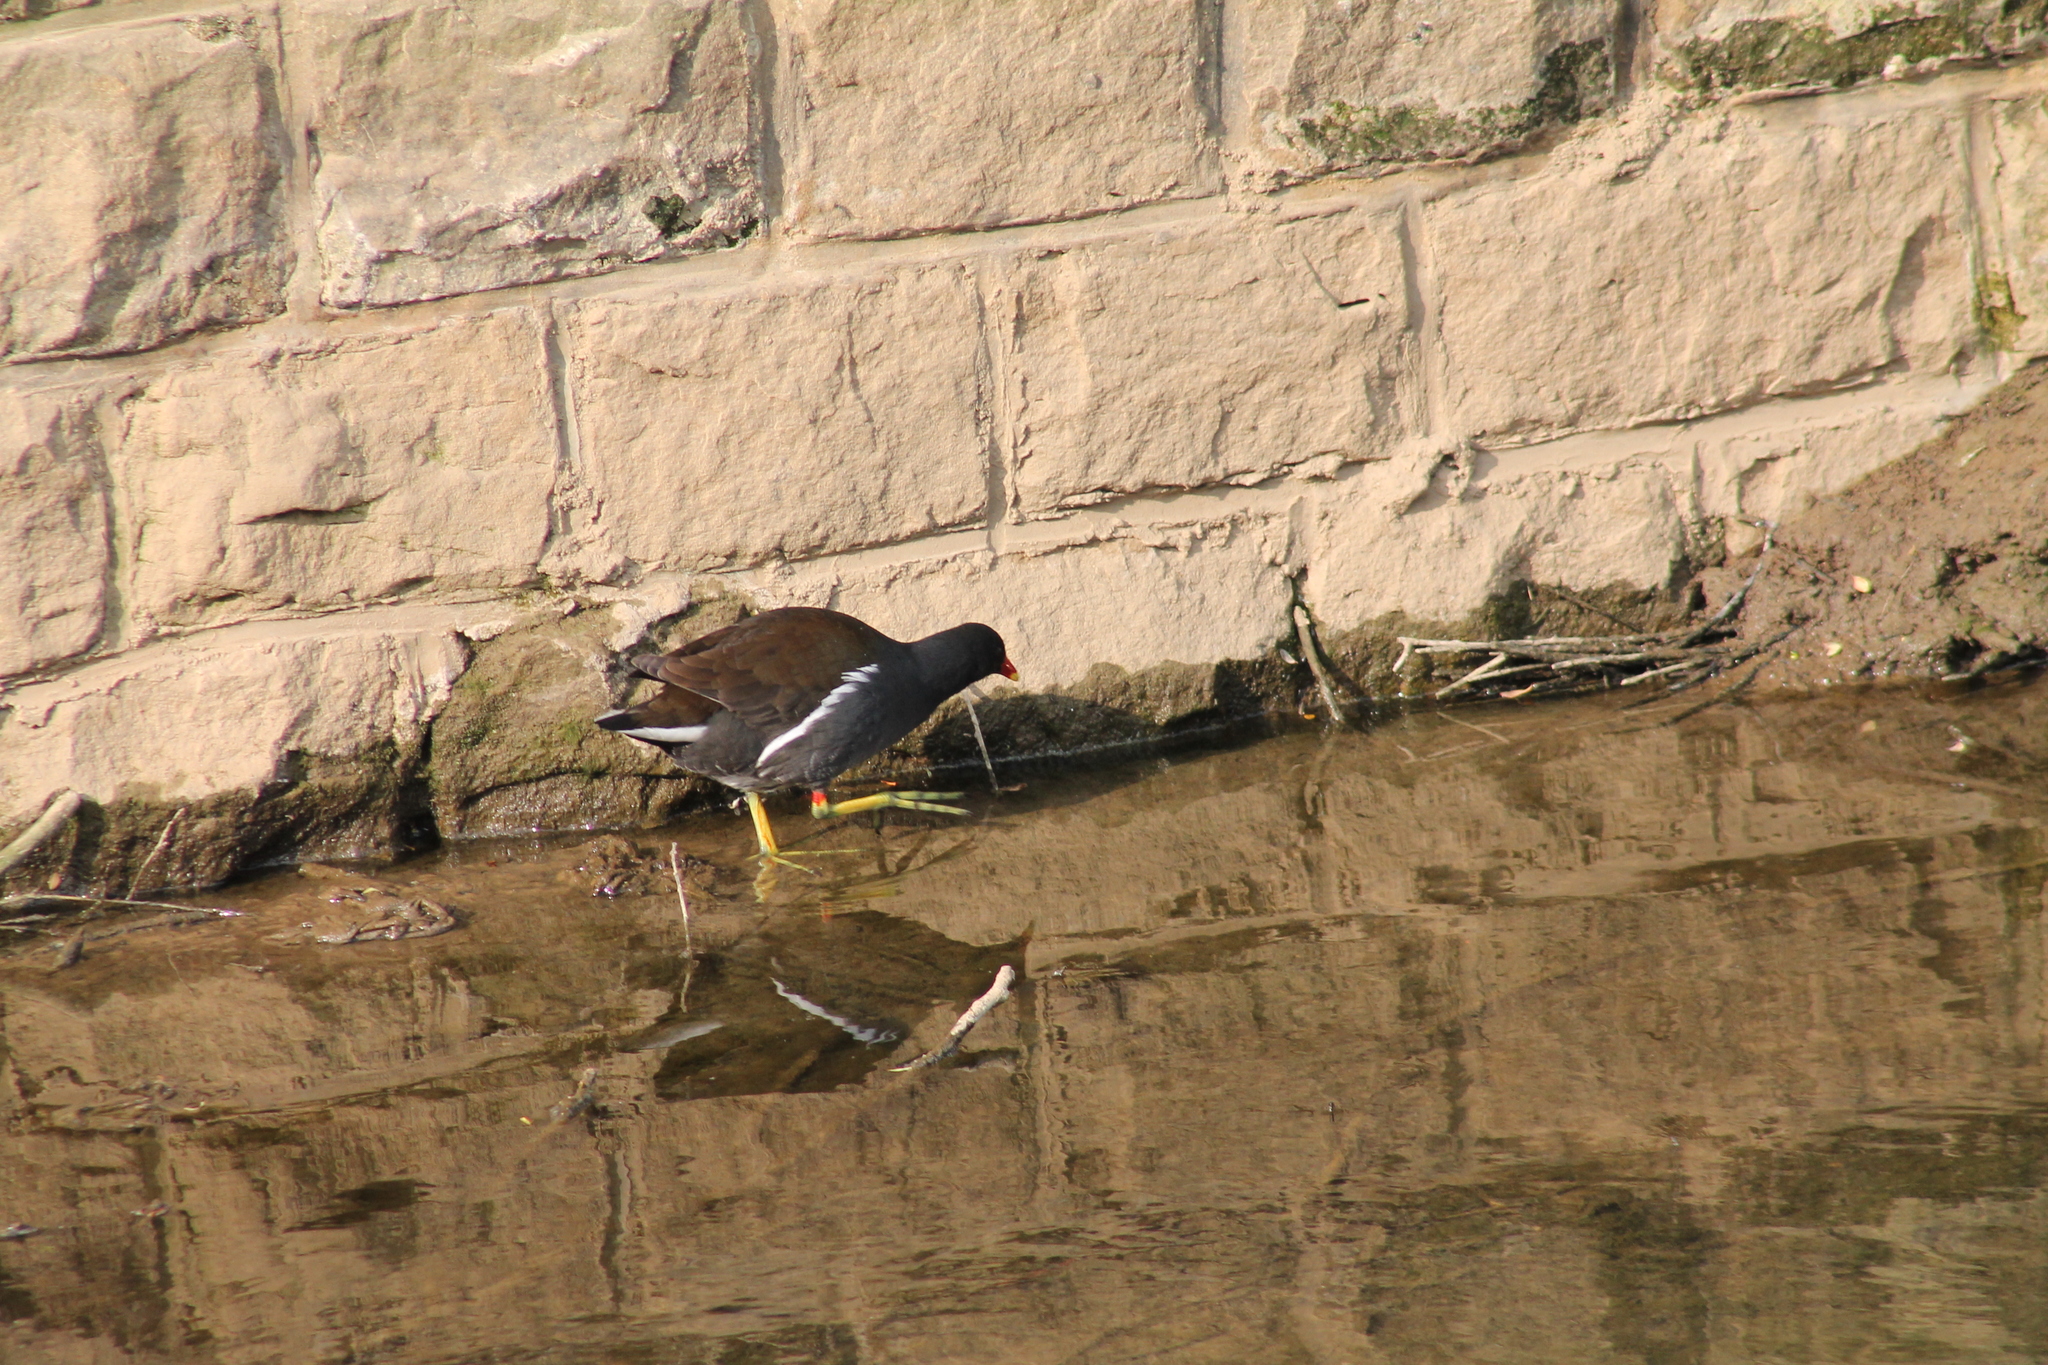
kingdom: Animalia
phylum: Chordata
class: Aves
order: Gruiformes
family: Rallidae
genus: Gallinula
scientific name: Gallinula chloropus
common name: Common moorhen
